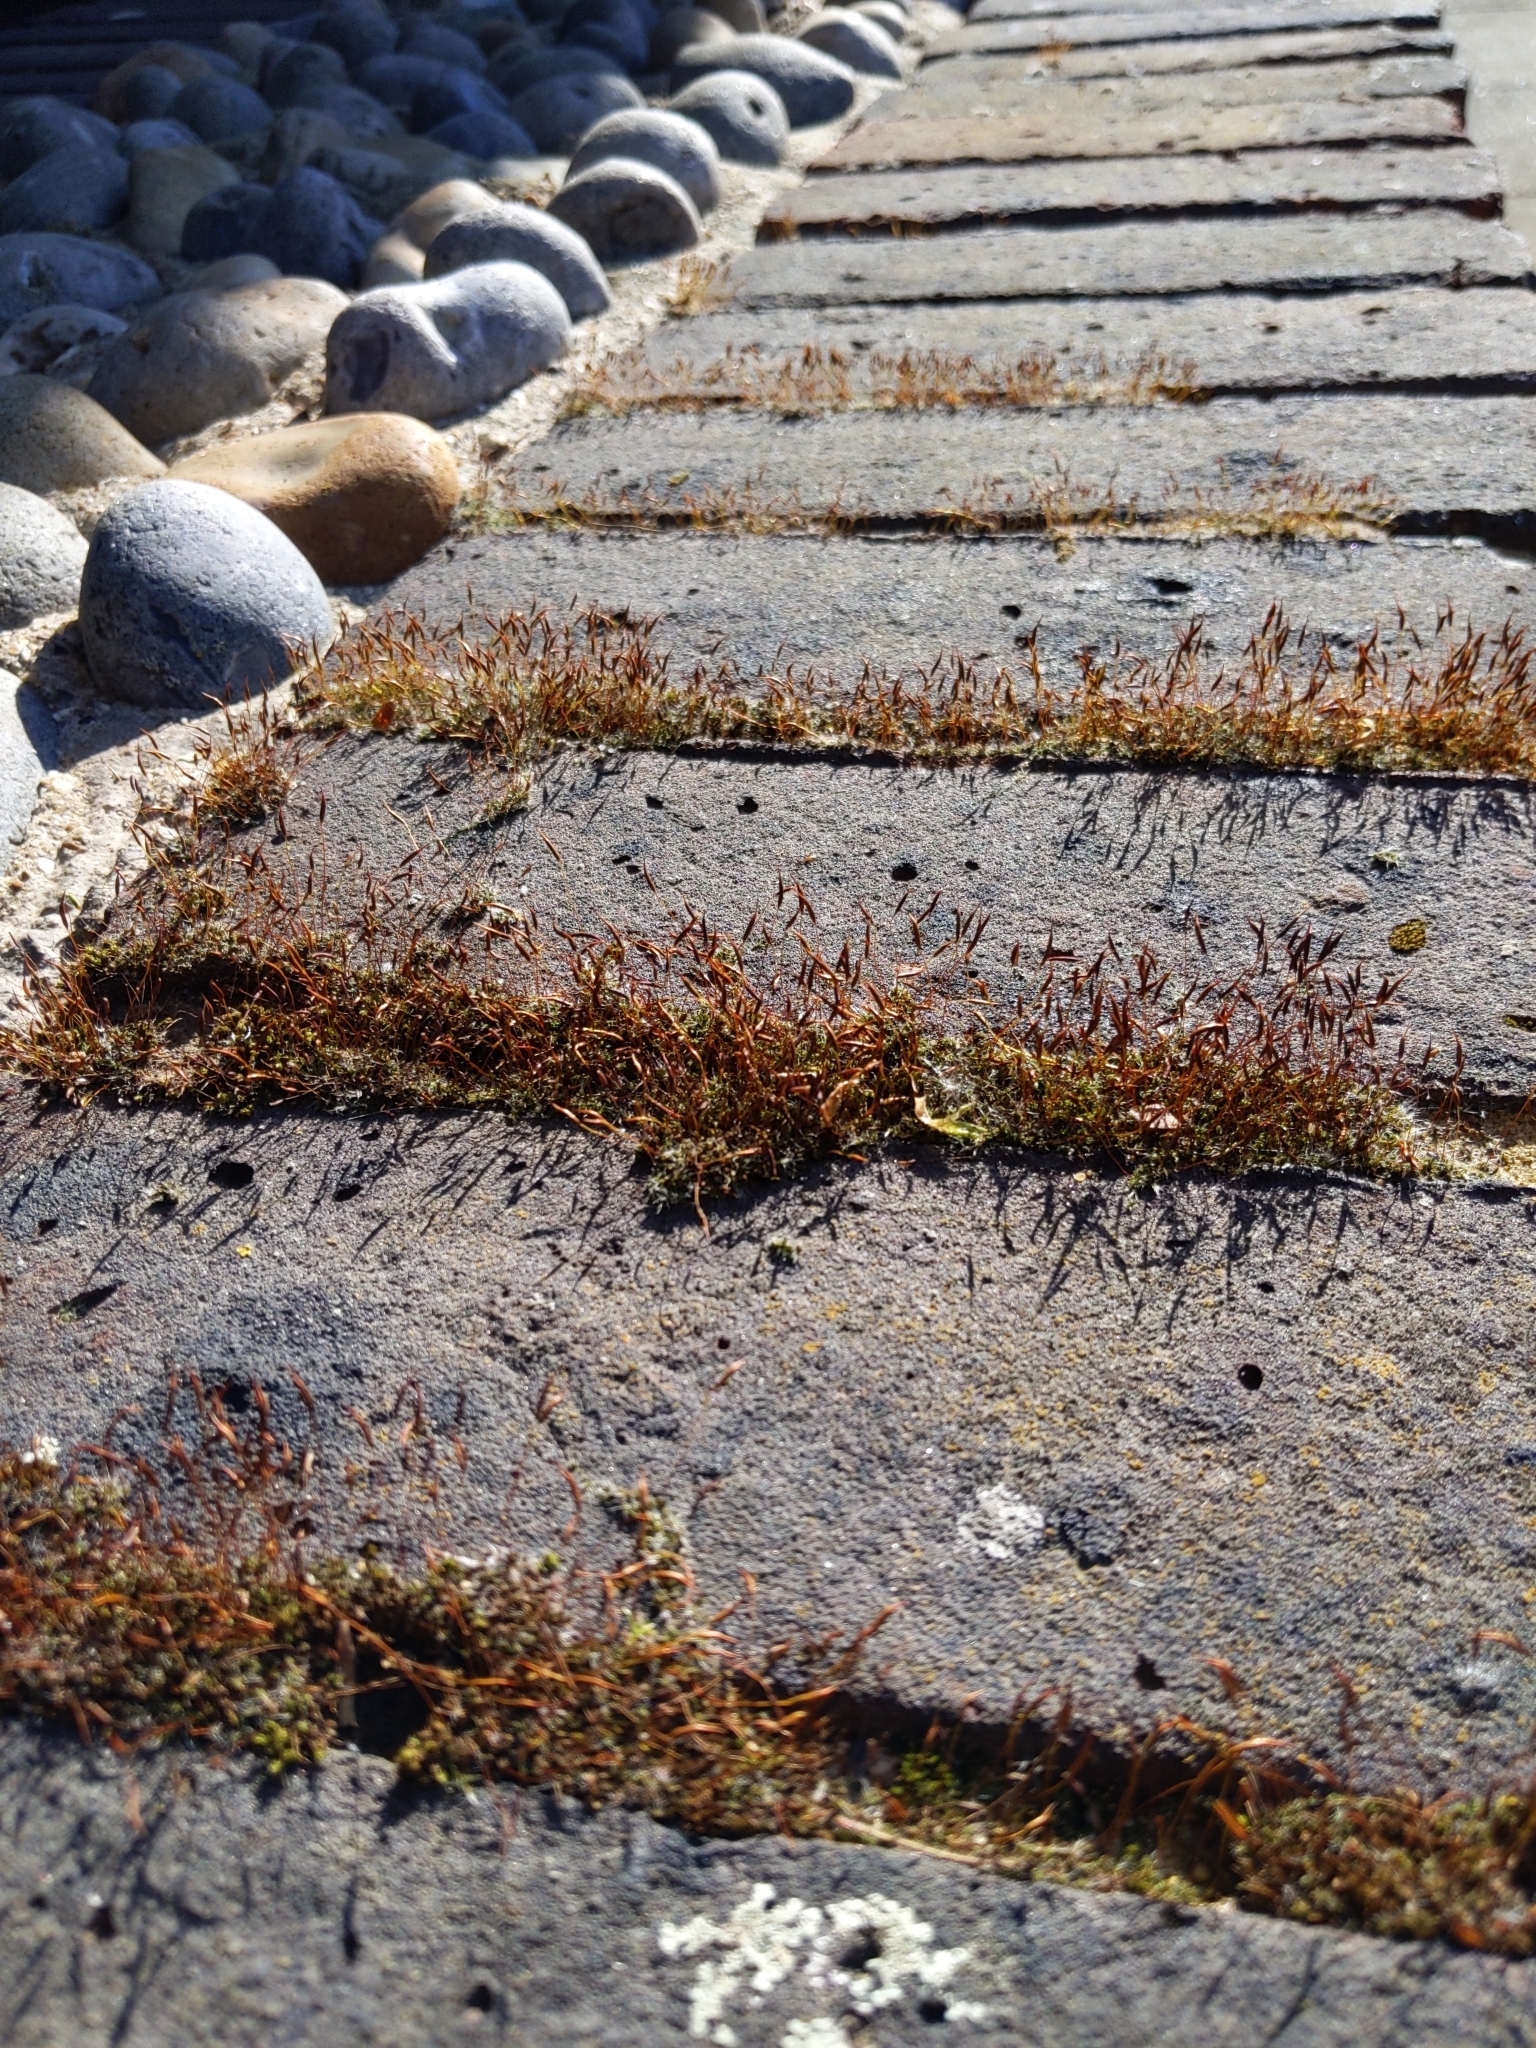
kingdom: Plantae
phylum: Bryophyta
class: Bryopsida
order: Pottiales
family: Pottiaceae
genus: Tortula
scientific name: Tortula muralis
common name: Wall screw-moss
